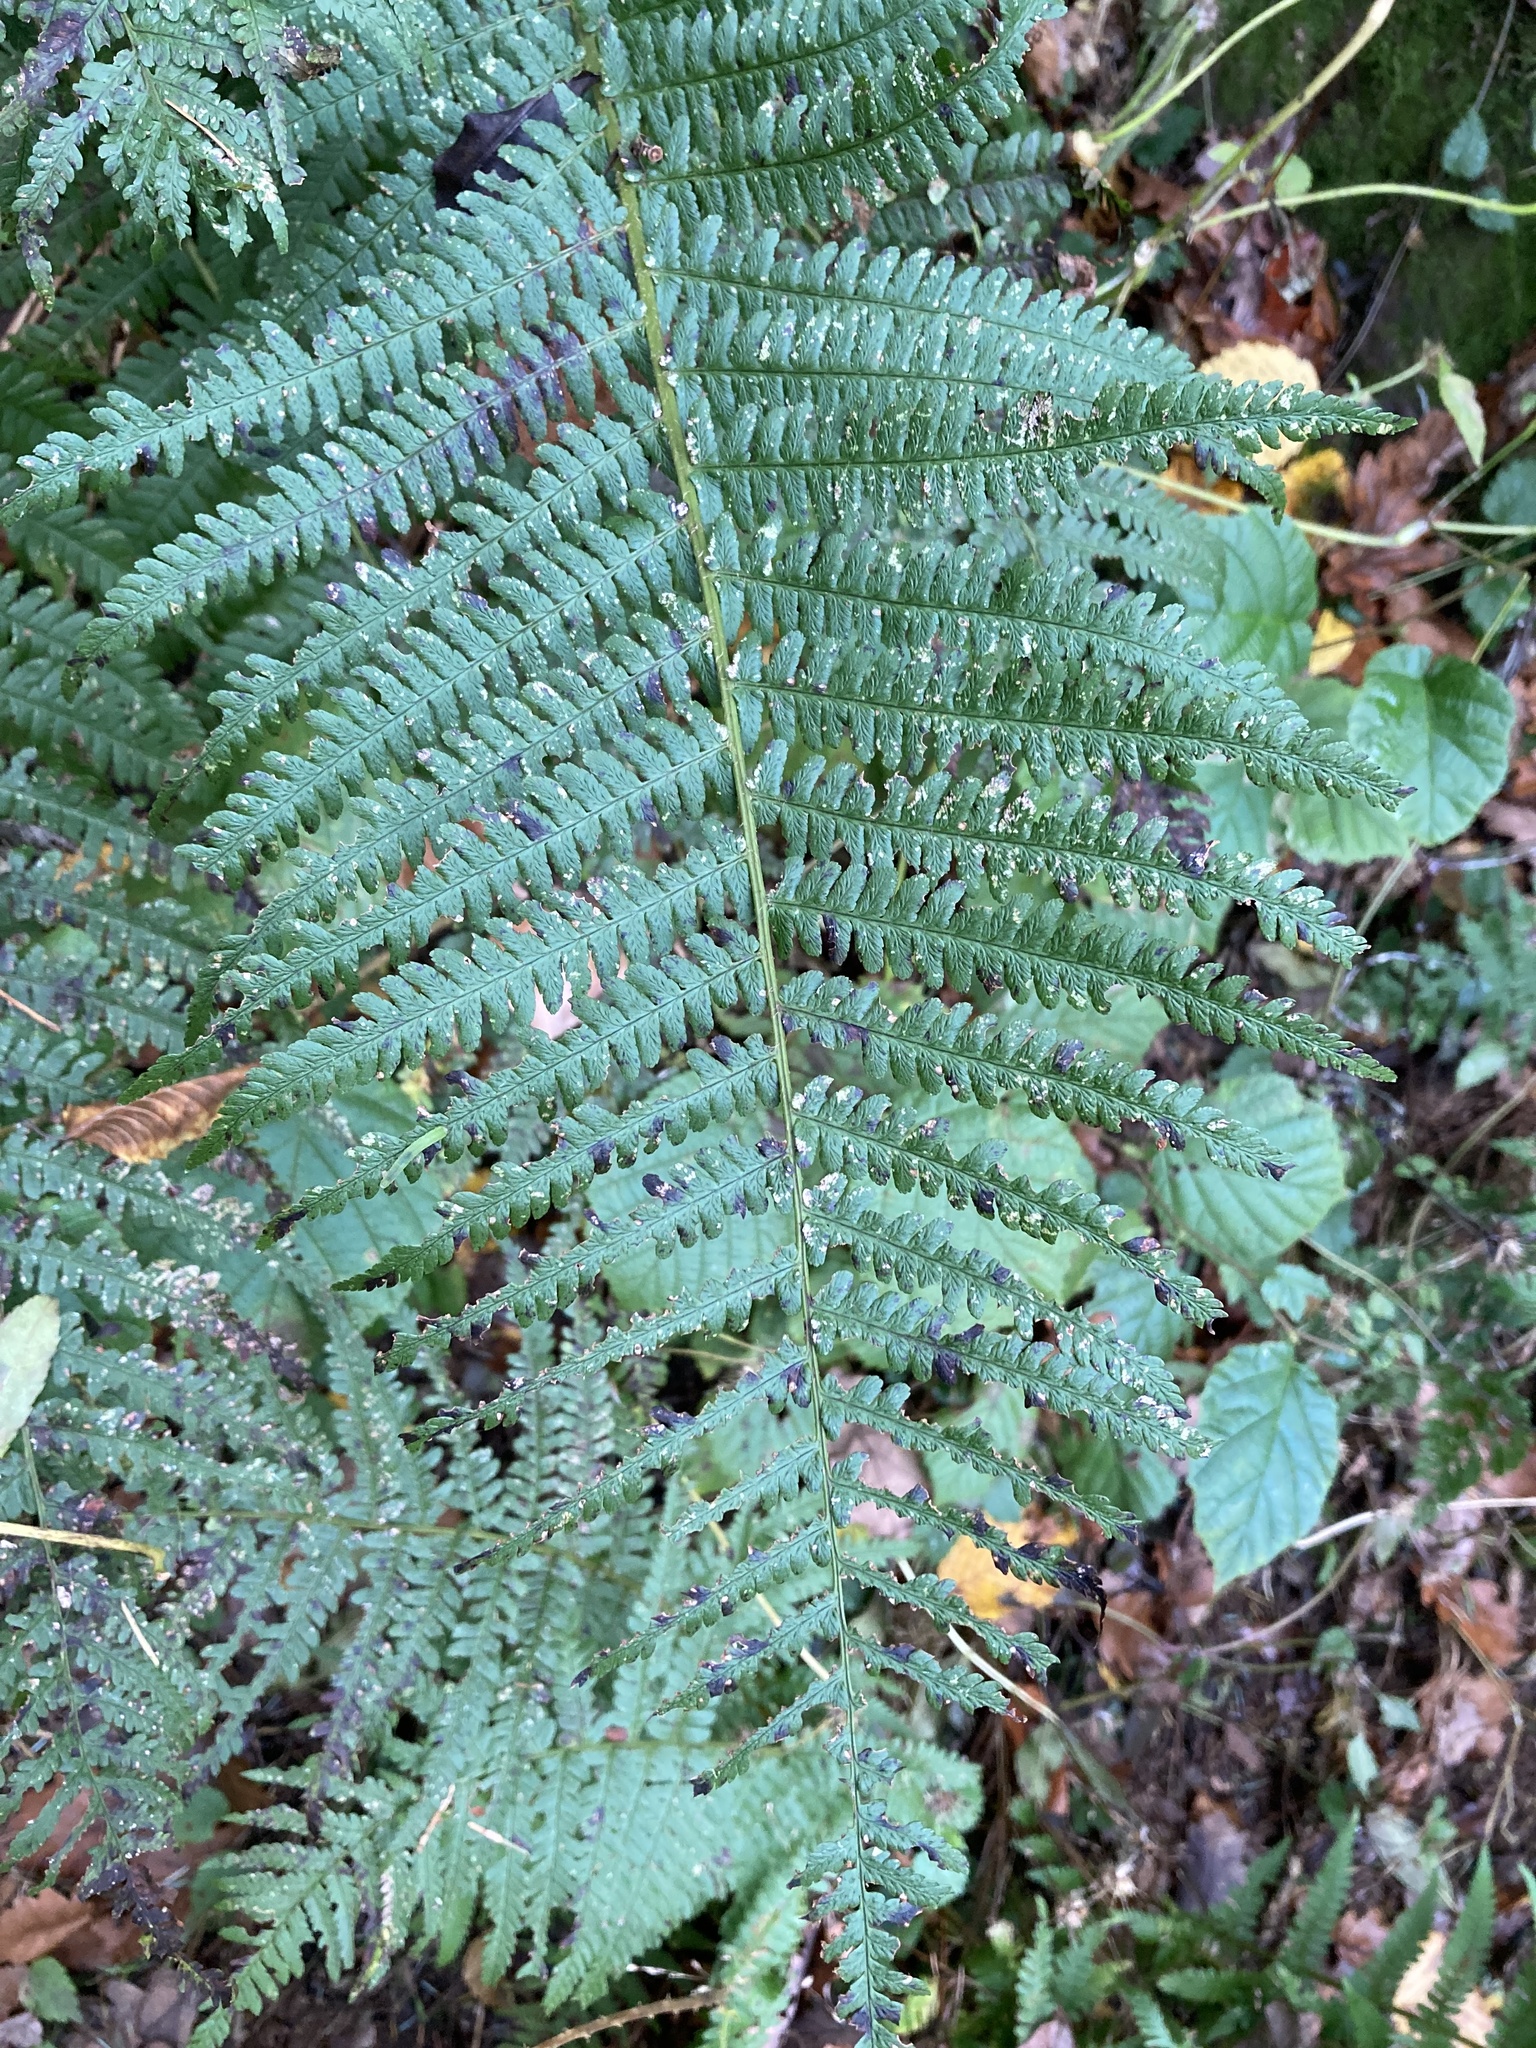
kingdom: Plantae
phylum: Tracheophyta
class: Polypodiopsida
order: Polypodiales
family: Dryopteridaceae
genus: Dryopteris
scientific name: Dryopteris filix-mas
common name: Male fern
